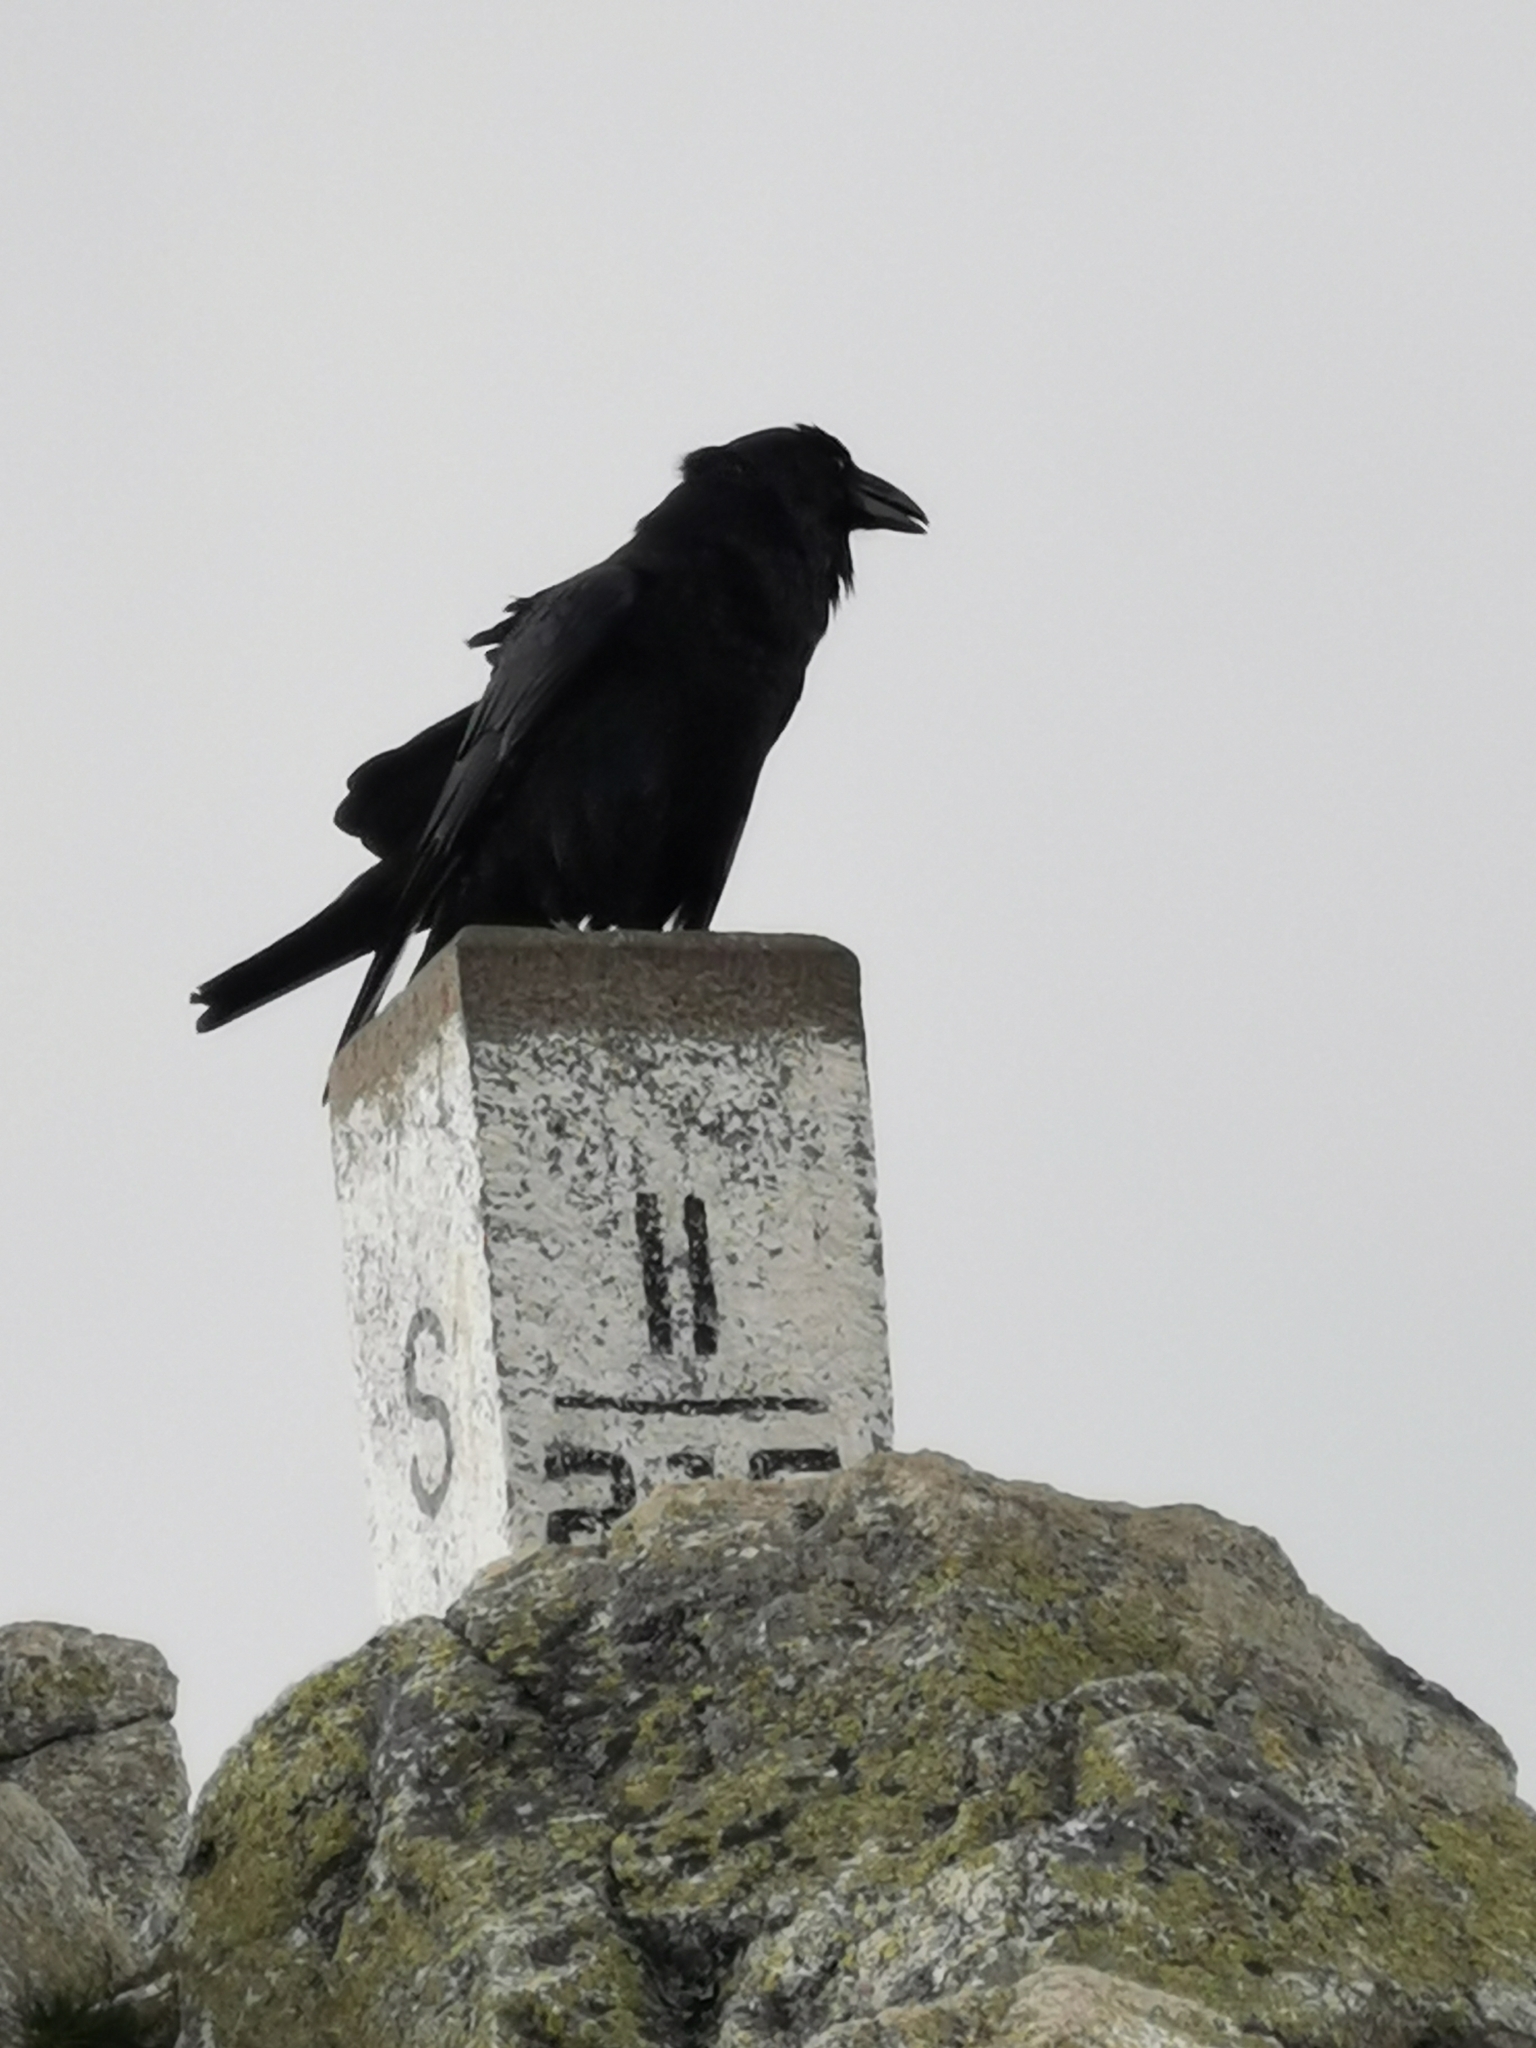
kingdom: Animalia
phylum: Chordata
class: Aves
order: Passeriformes
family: Corvidae
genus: Corvus
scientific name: Corvus corax
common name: Common raven
